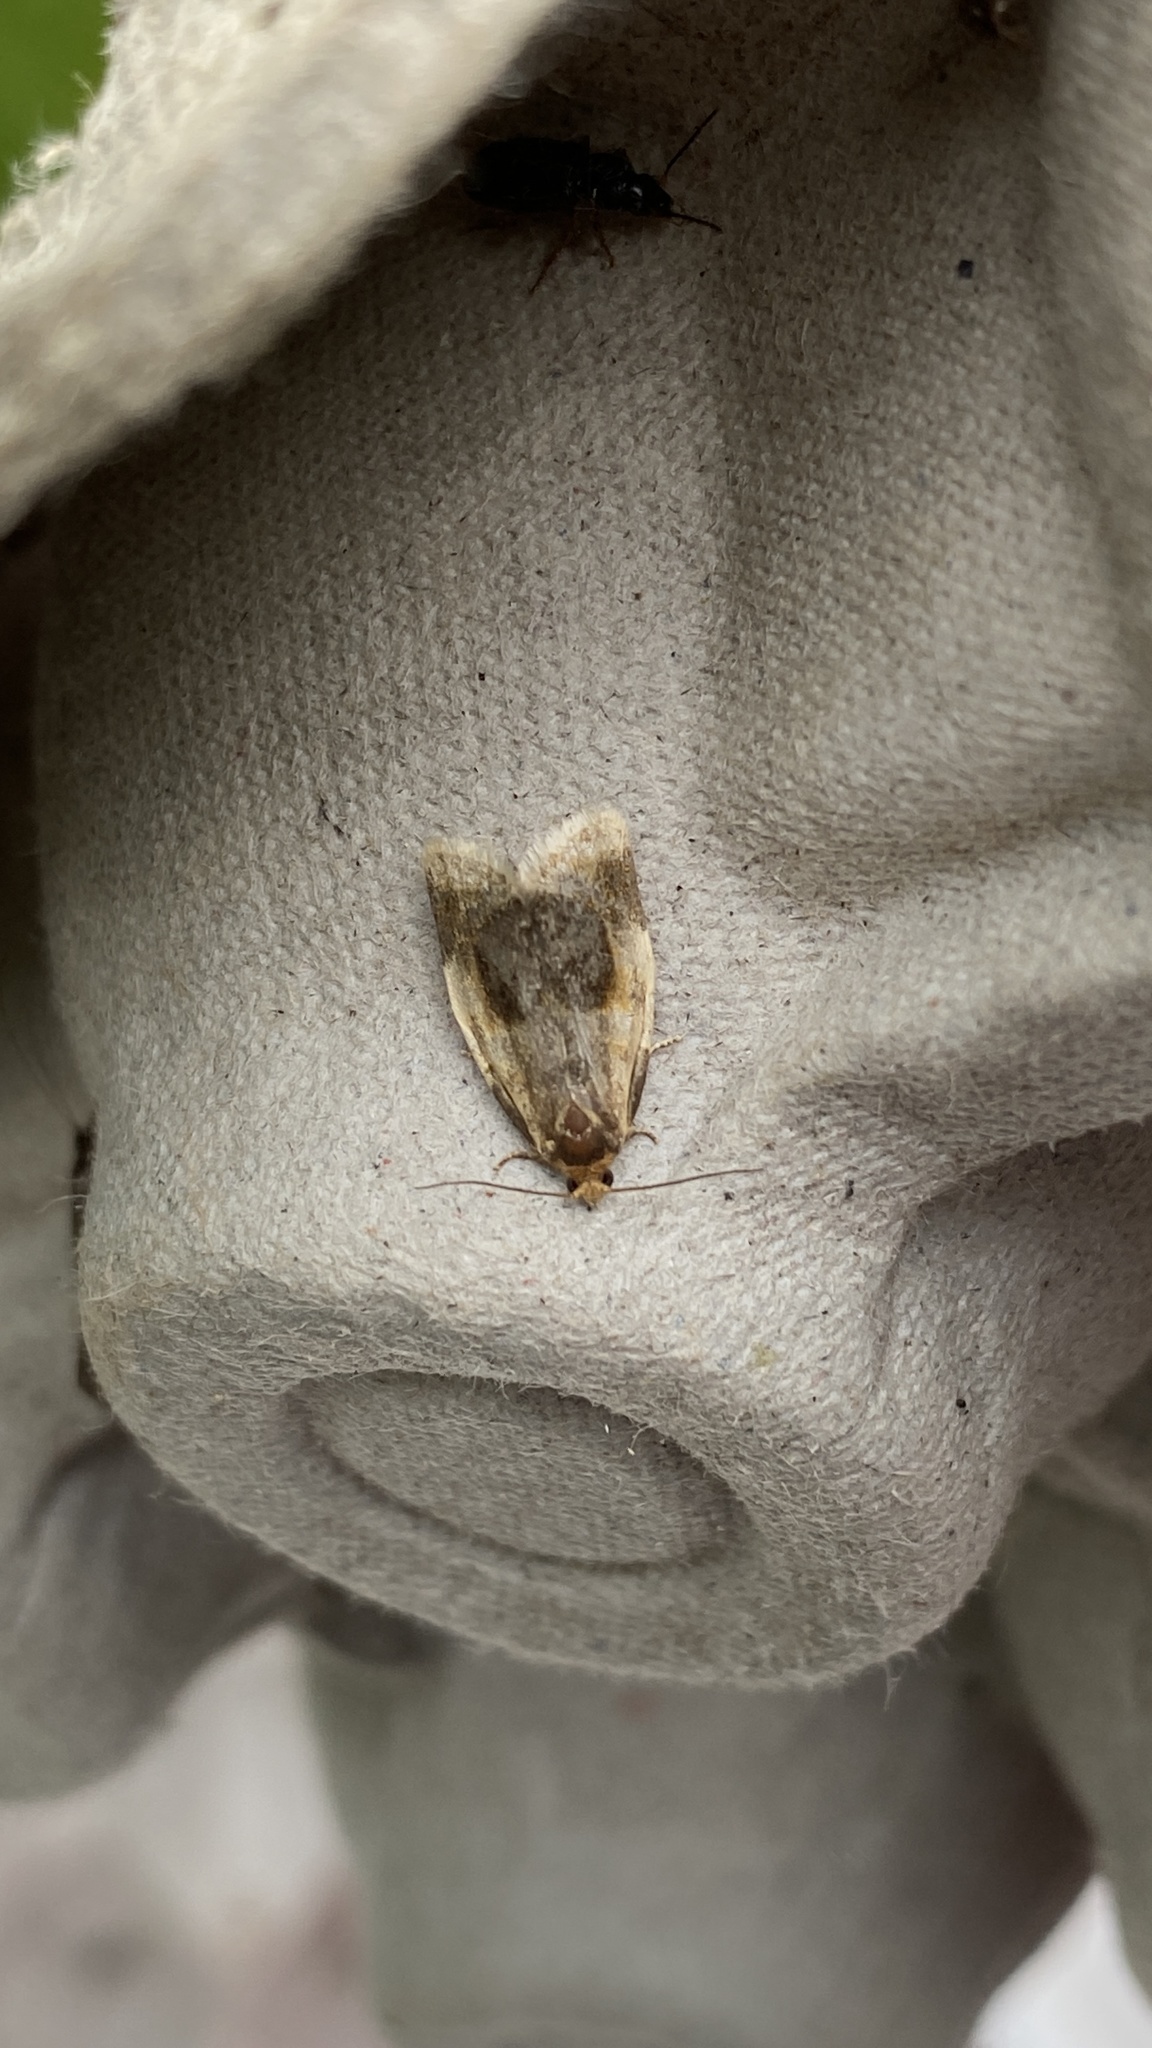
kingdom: Animalia
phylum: Arthropoda
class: Insecta
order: Lepidoptera
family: Tortricidae
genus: Clepsis
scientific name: Clepsis melaleucanus
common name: American apple tortrix
